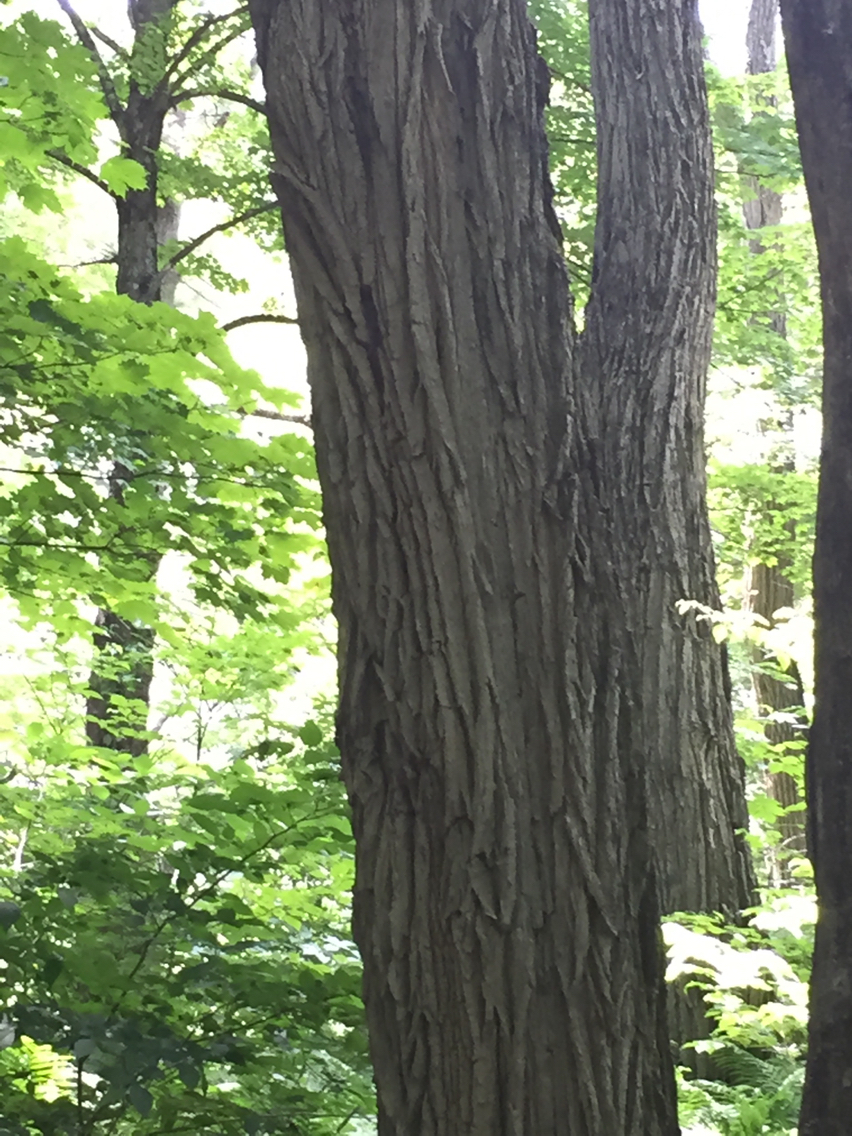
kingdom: Plantae
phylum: Tracheophyta
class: Magnoliopsida
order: Fabales
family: Fabaceae
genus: Robinia
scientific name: Robinia pseudoacacia
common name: Black locust
